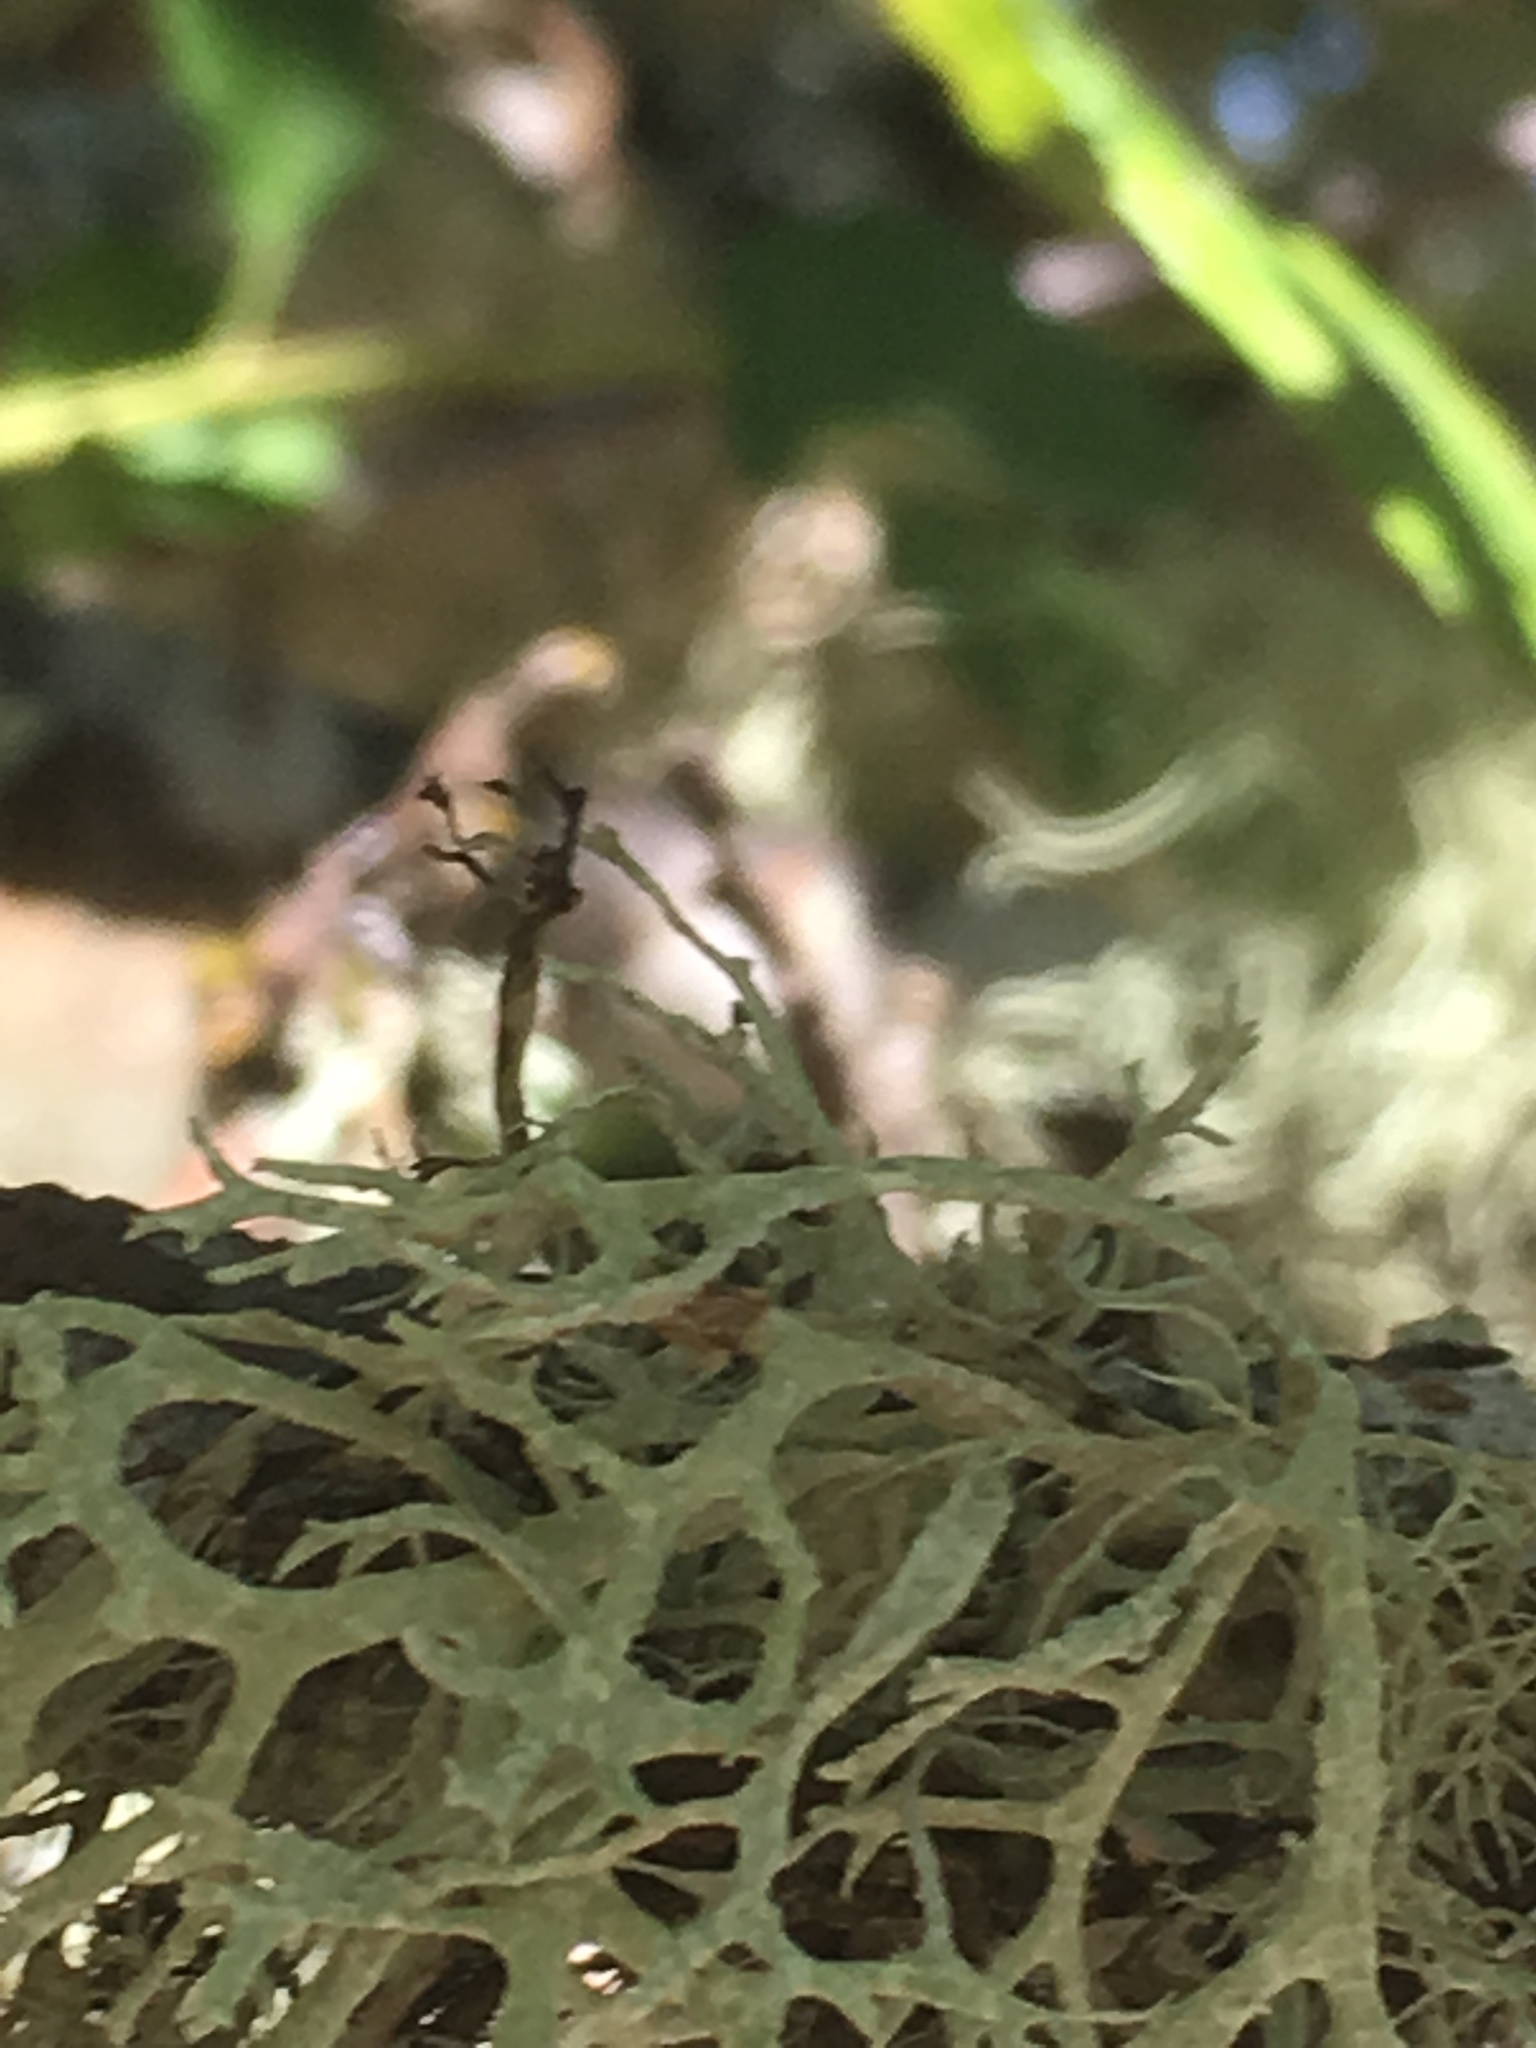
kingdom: Fungi
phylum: Ascomycota
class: Lecanoromycetes
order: Lecanorales
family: Parmeliaceae
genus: Evernia
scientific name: Evernia prunastri
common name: Oak moss
